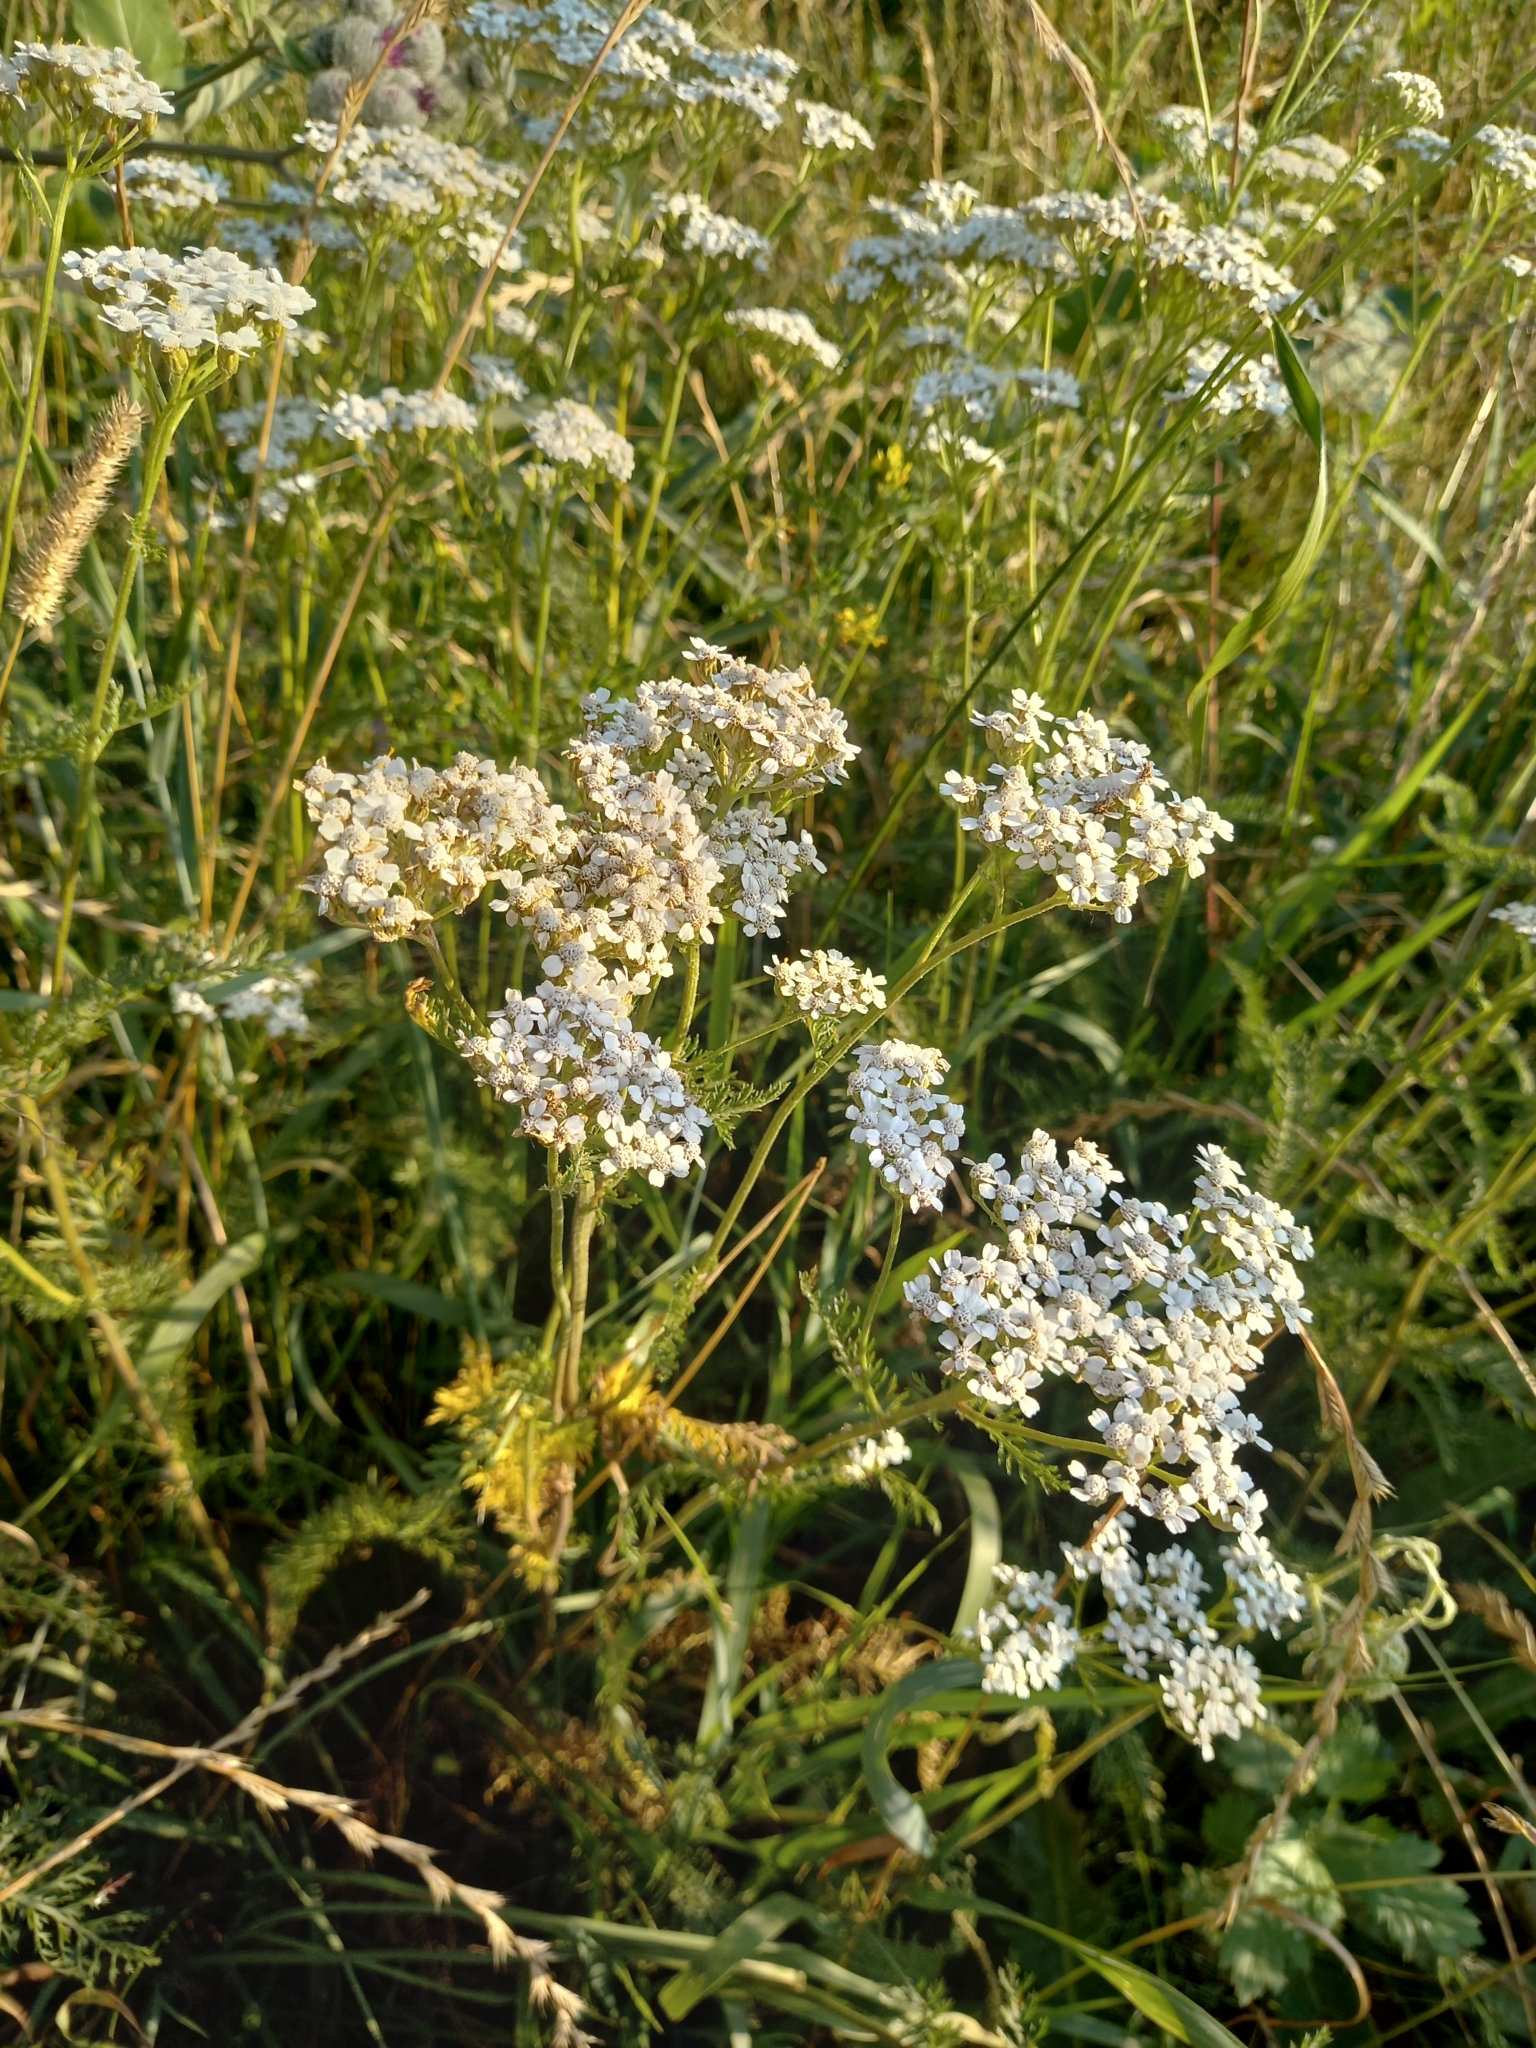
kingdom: Plantae
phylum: Tracheophyta
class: Magnoliopsida
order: Asterales
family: Asteraceae
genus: Achillea
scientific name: Achillea millefolium
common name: Yarrow
